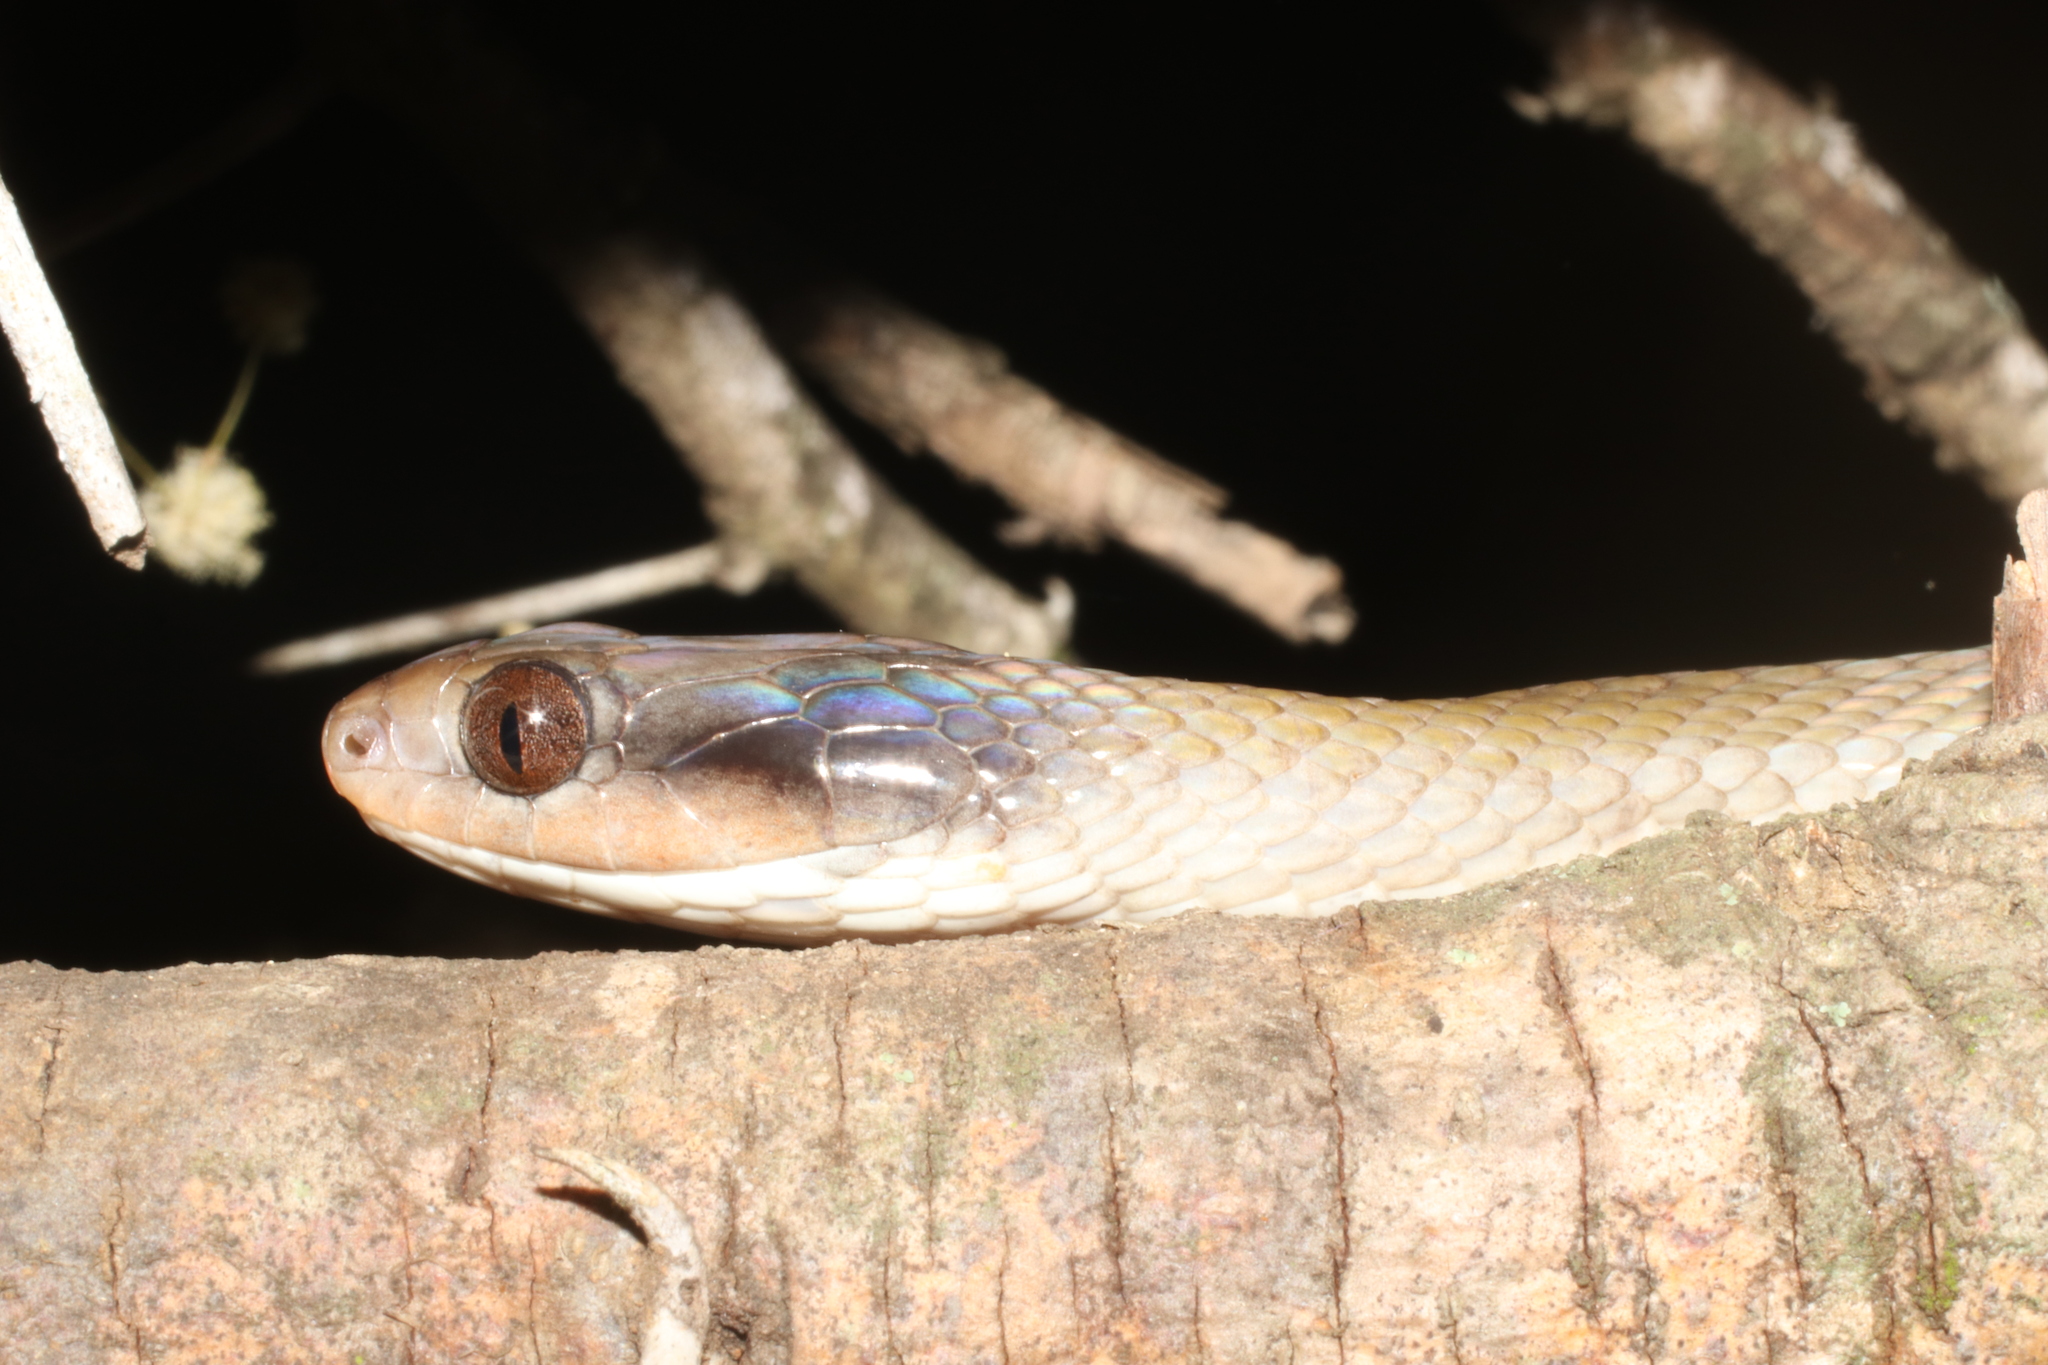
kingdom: Animalia
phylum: Chordata
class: Squamata
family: Colubridae
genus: Crotaphopeltis
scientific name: Crotaphopeltis hotamboeia
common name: Red-lipped snake
